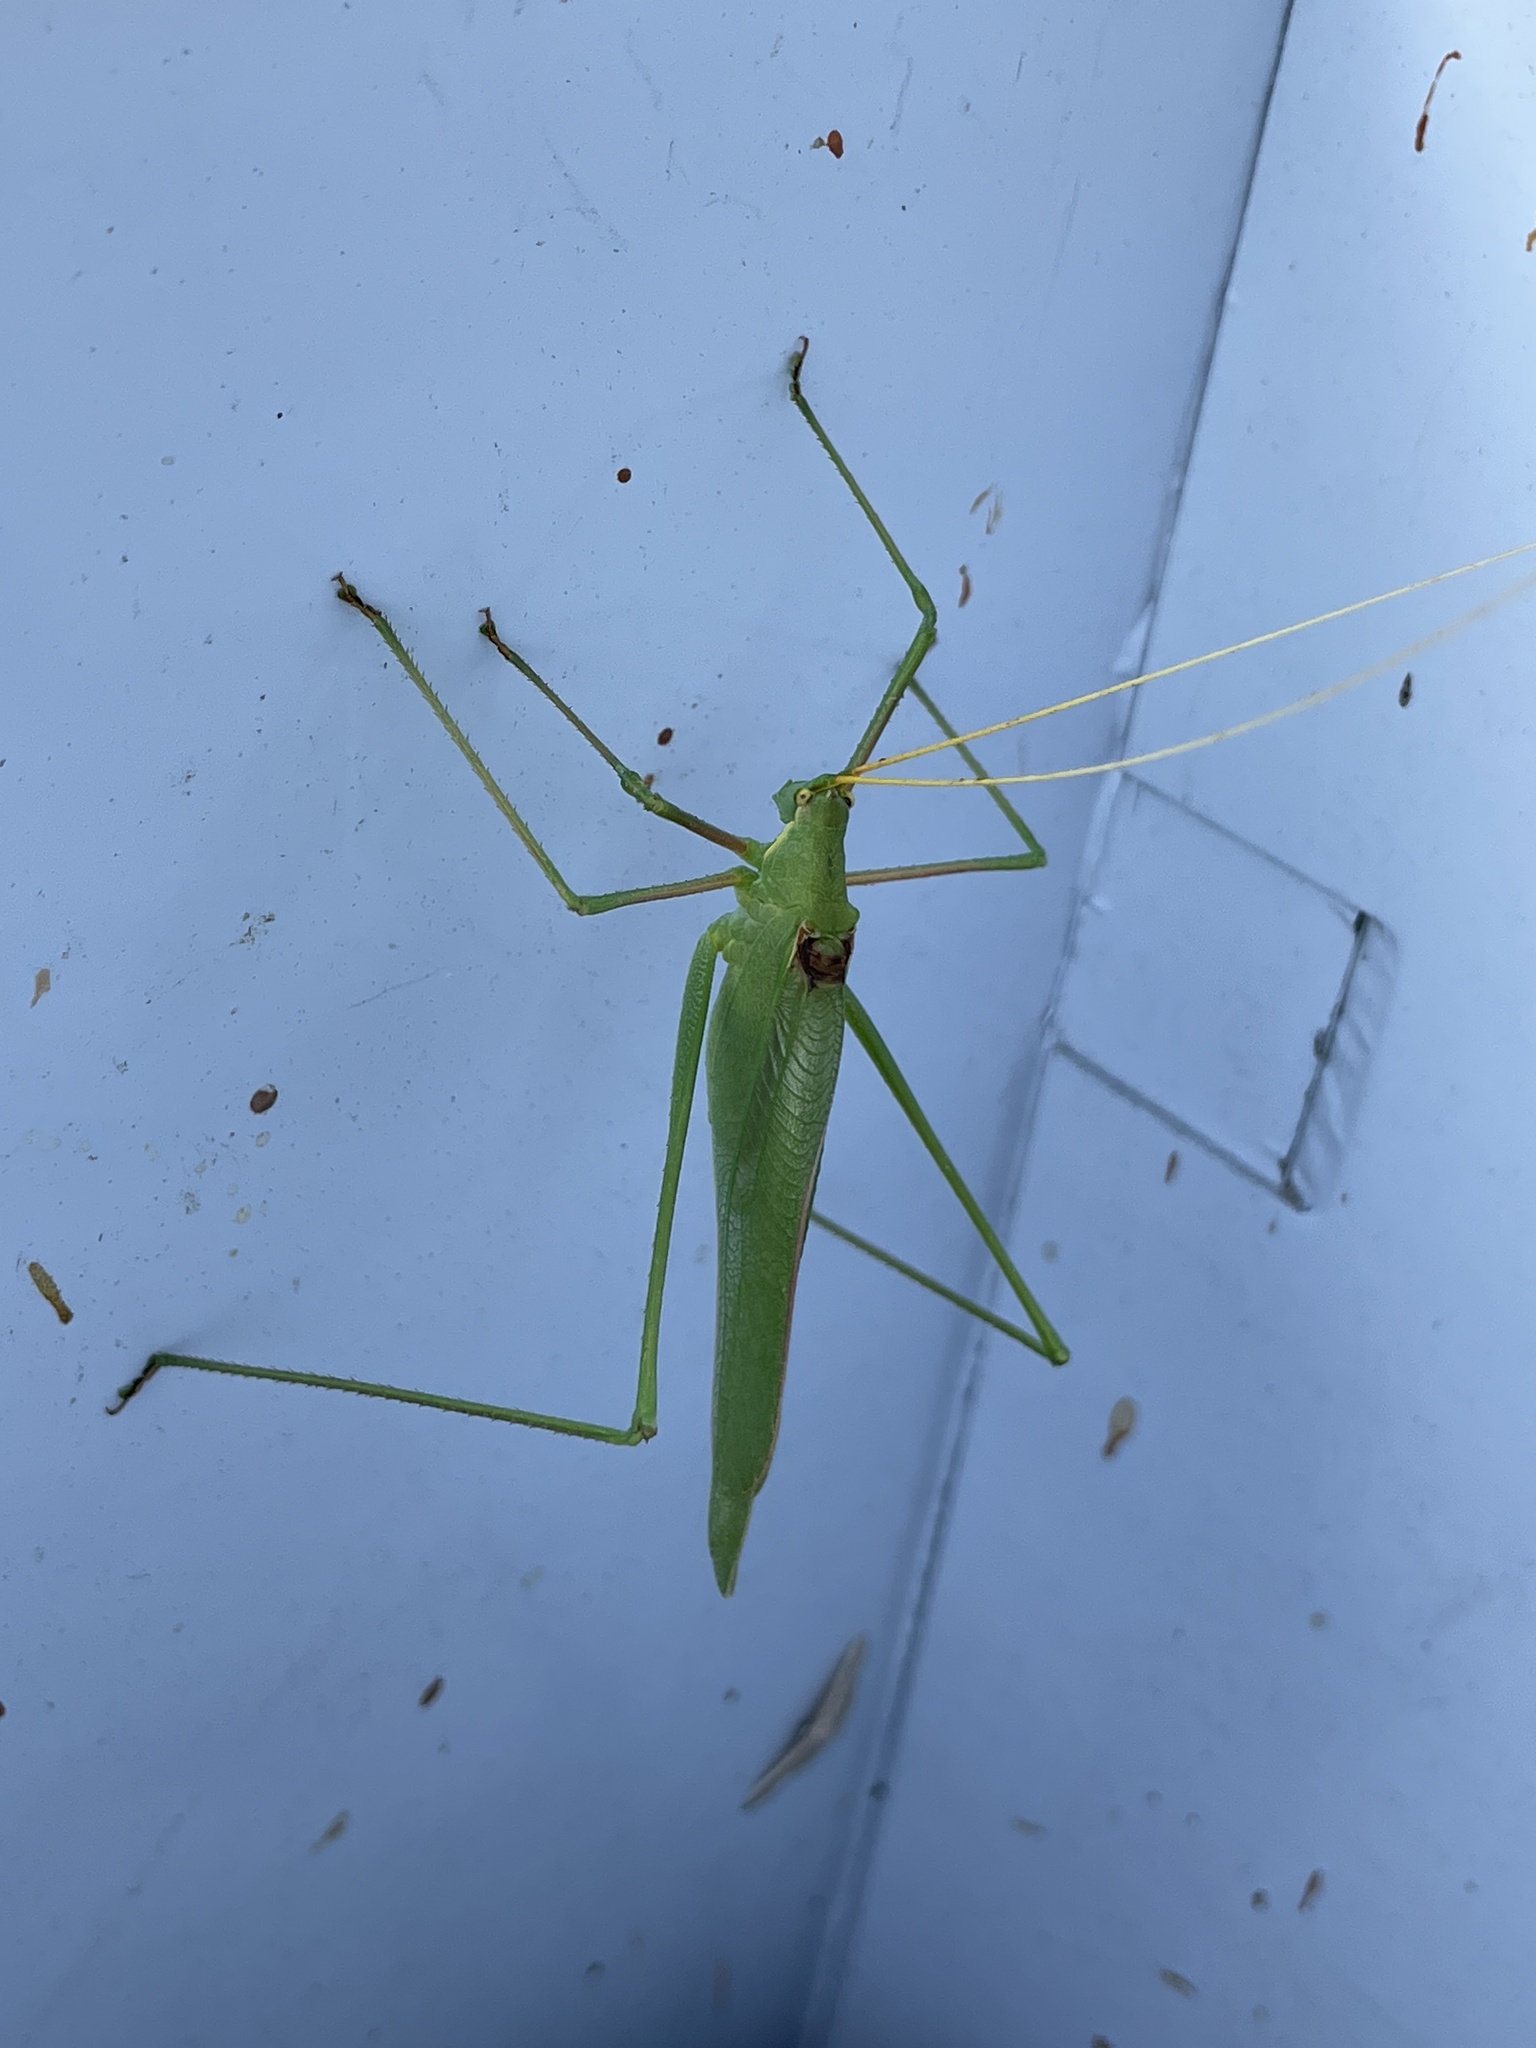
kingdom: Animalia
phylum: Arthropoda
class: Insecta
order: Orthoptera
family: Tettigoniidae
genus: Acrometopa
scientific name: Acrometopa macropoda
